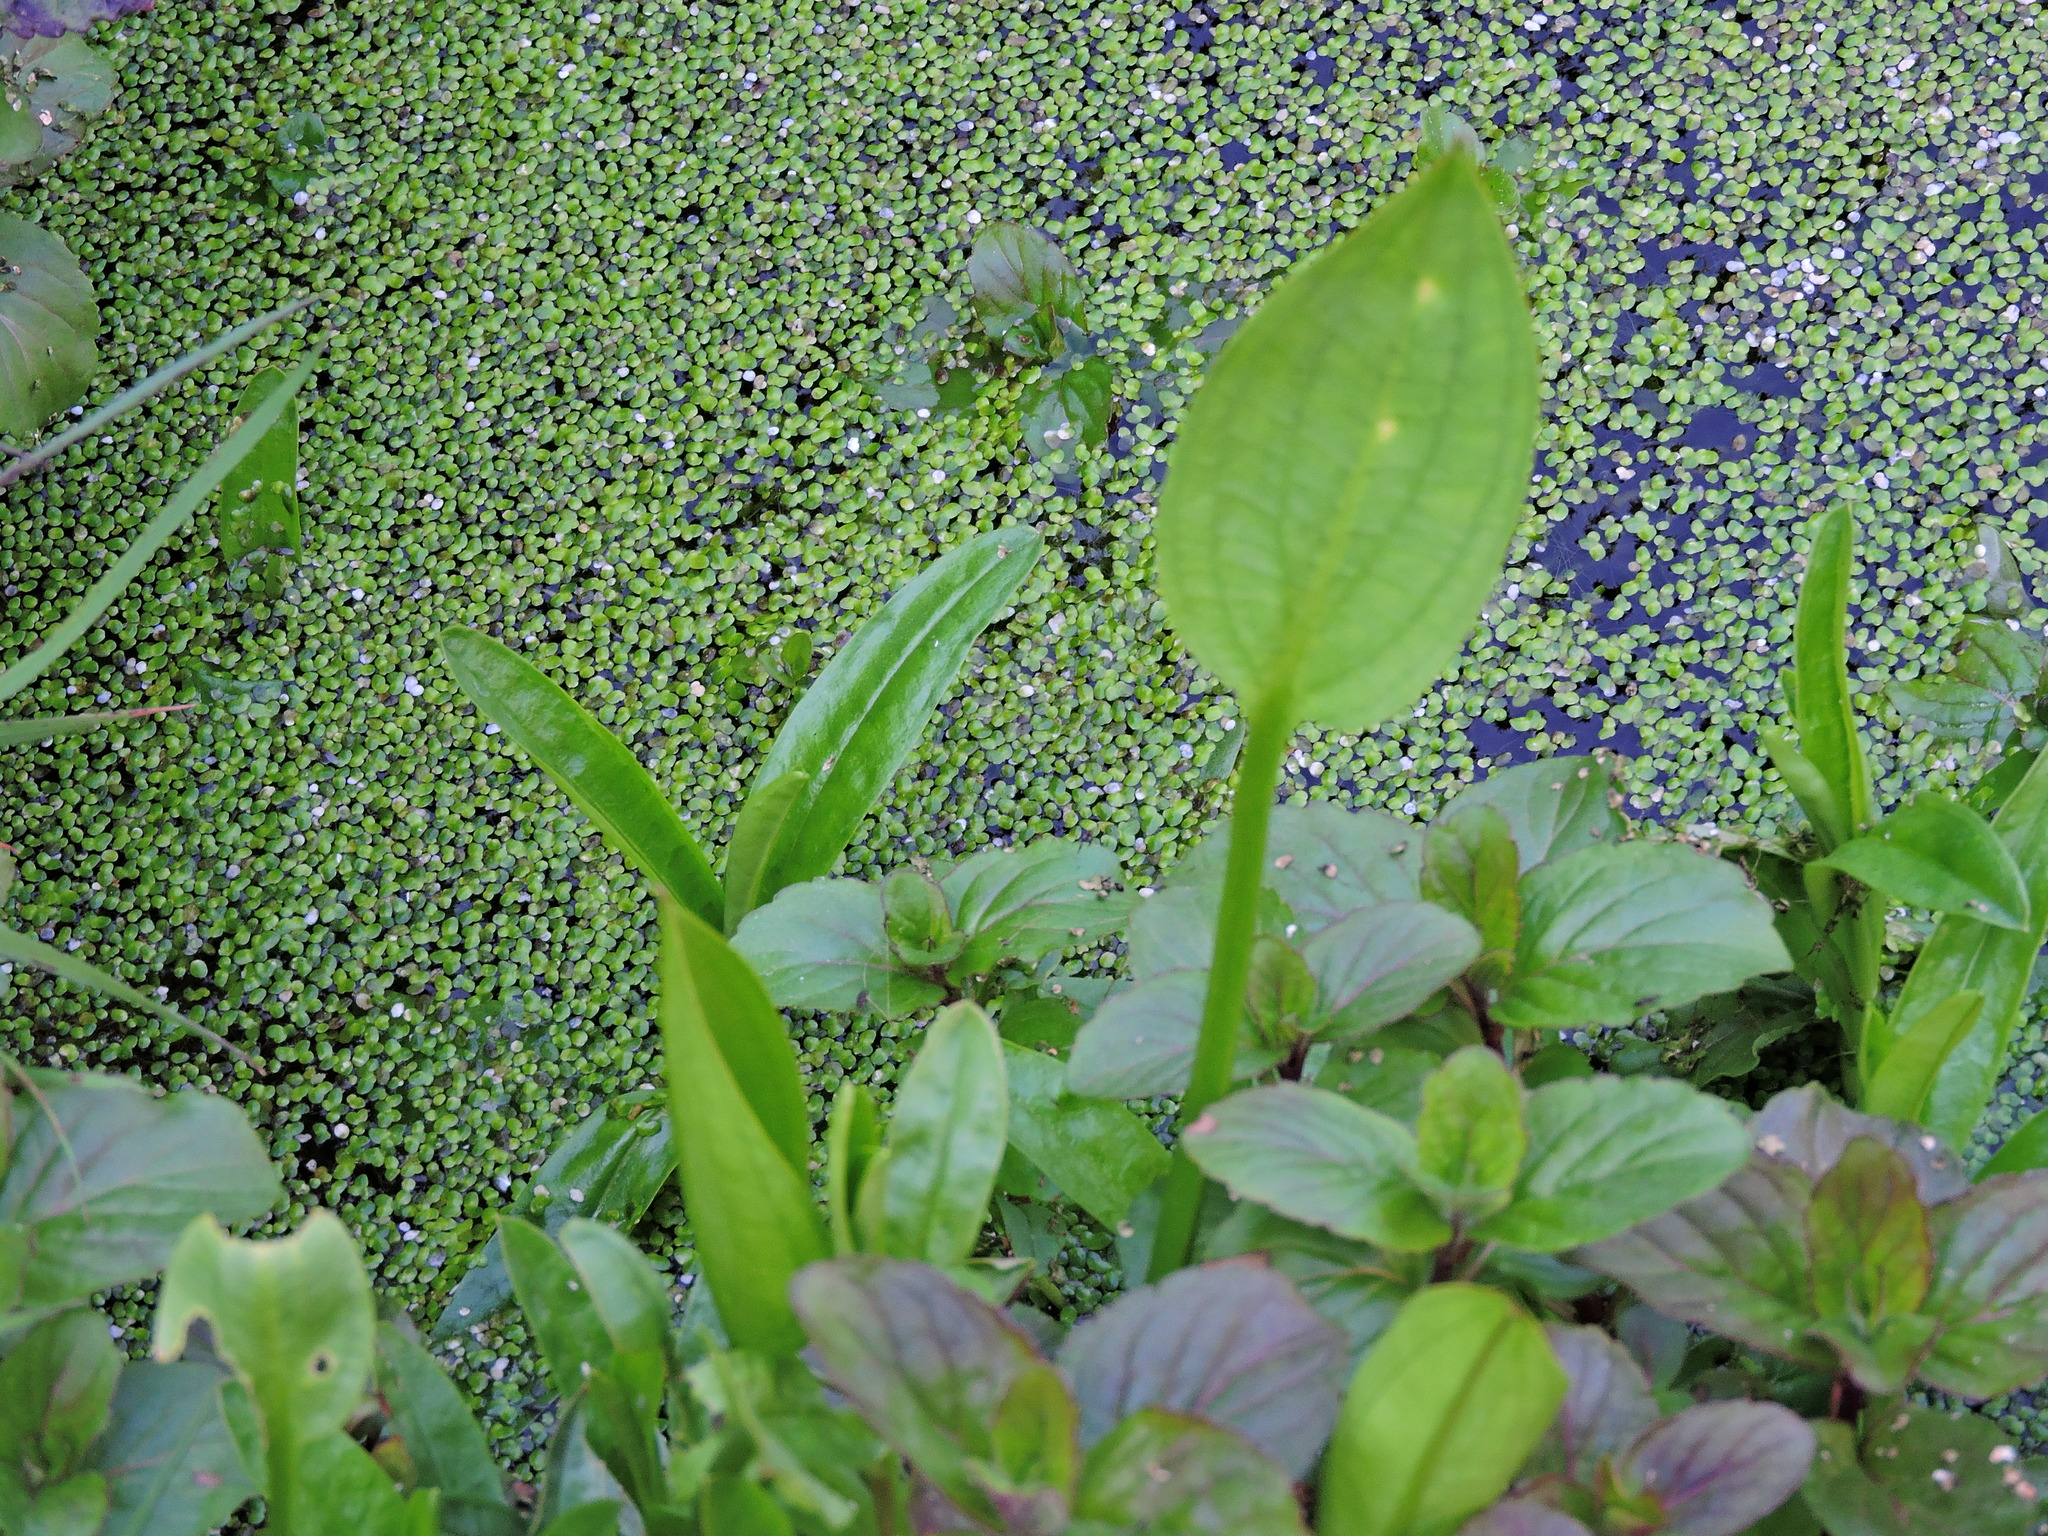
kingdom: Plantae
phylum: Tracheophyta
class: Liliopsida
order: Alismatales
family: Alismataceae
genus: Alisma
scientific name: Alisma plantago-aquatica
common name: Water-plantain
